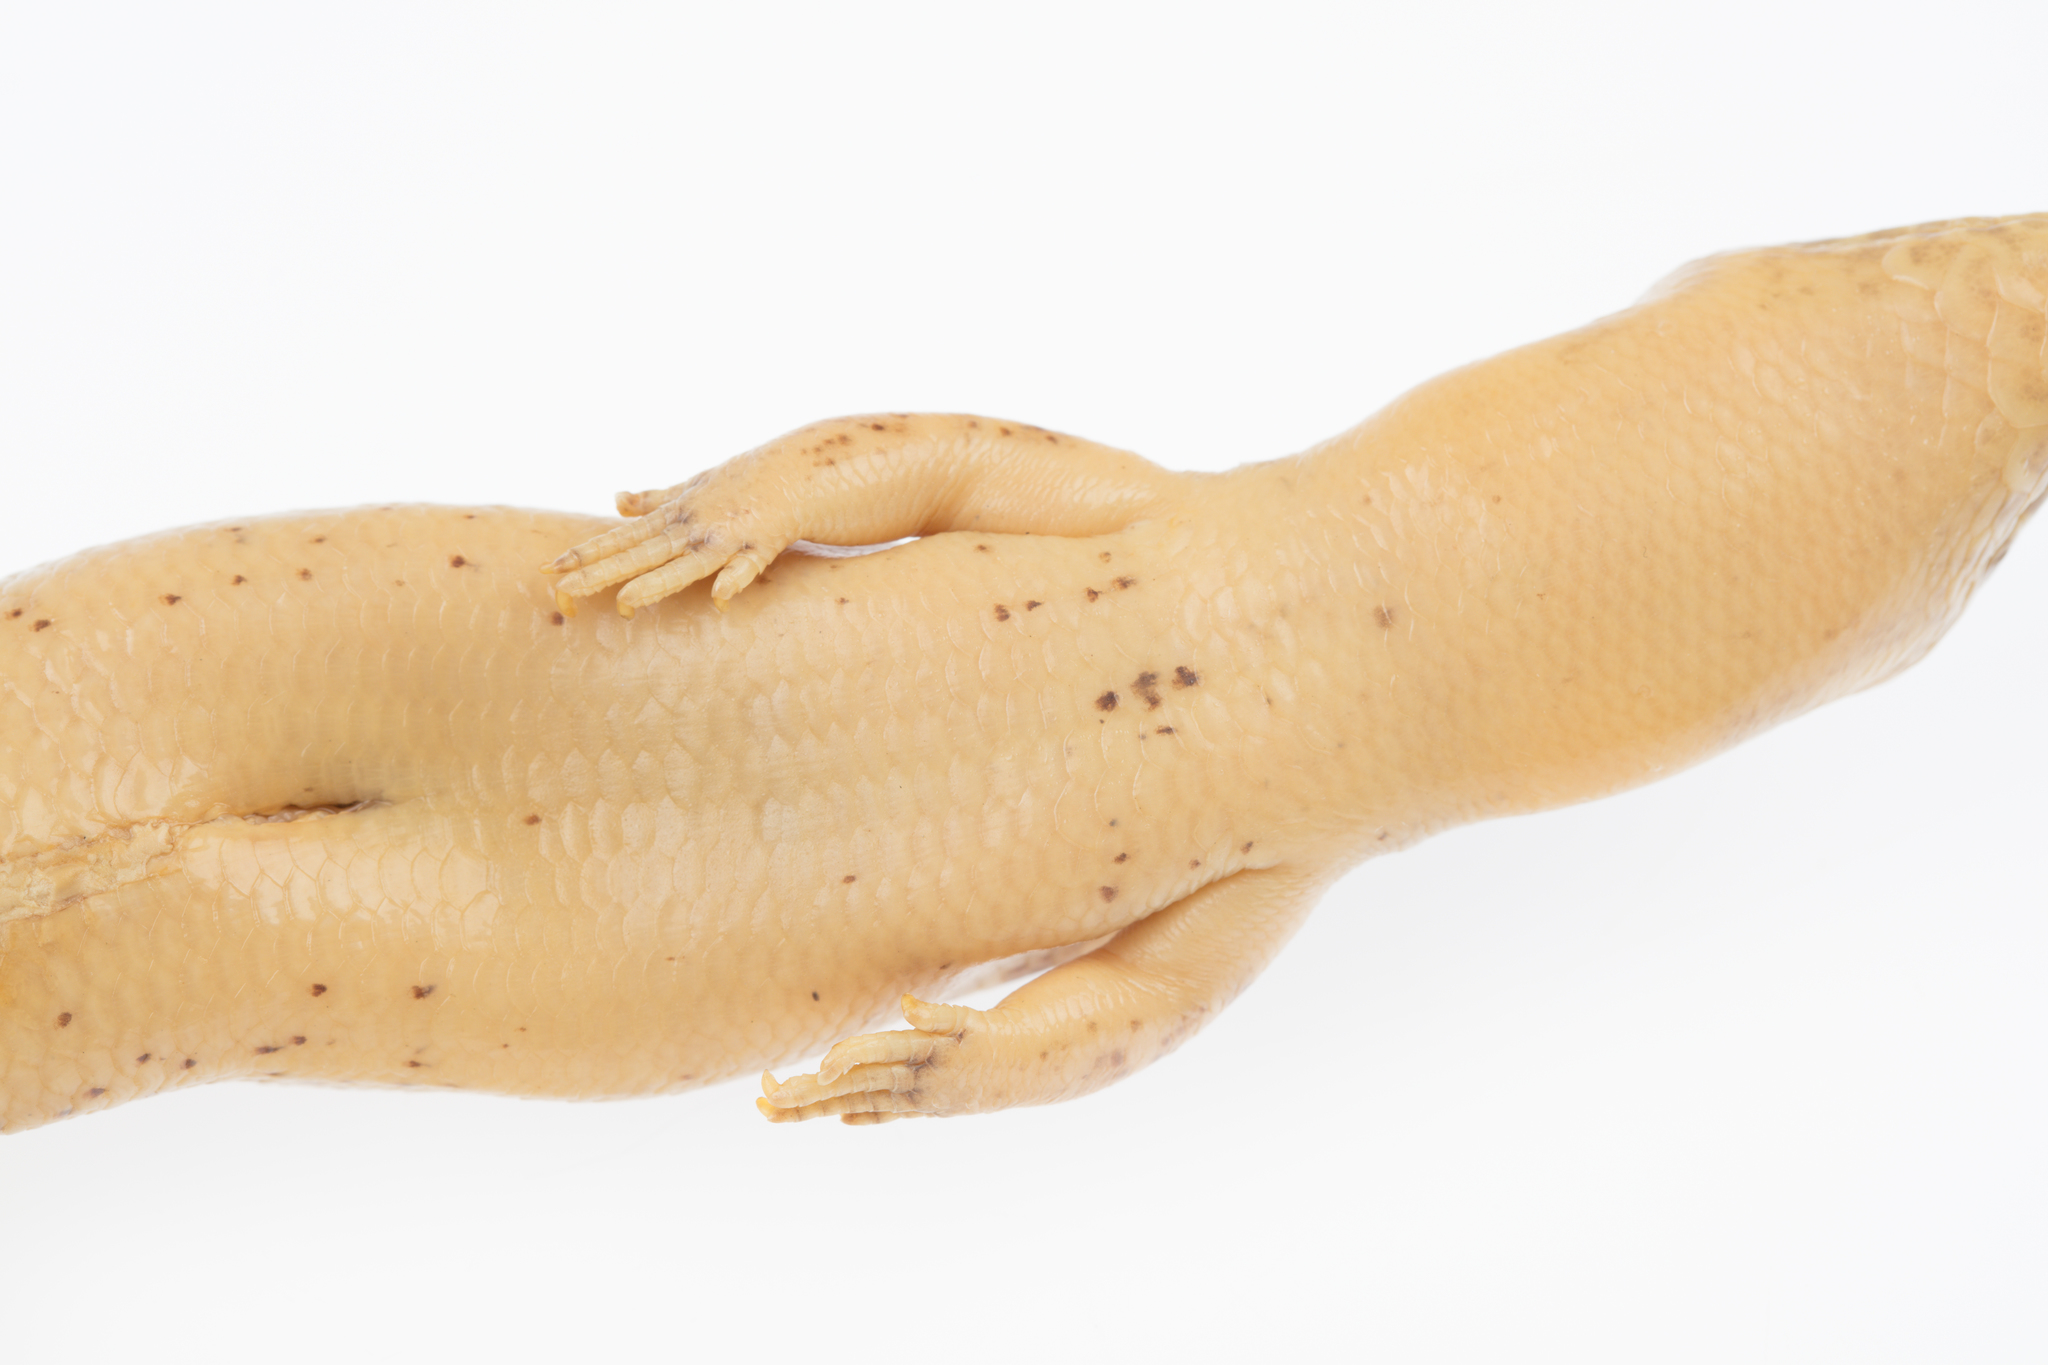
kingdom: Animalia
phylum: Chordata
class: Squamata
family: Scincidae
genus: Oligosoma
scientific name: Oligosoma alani
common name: Alan's skink
